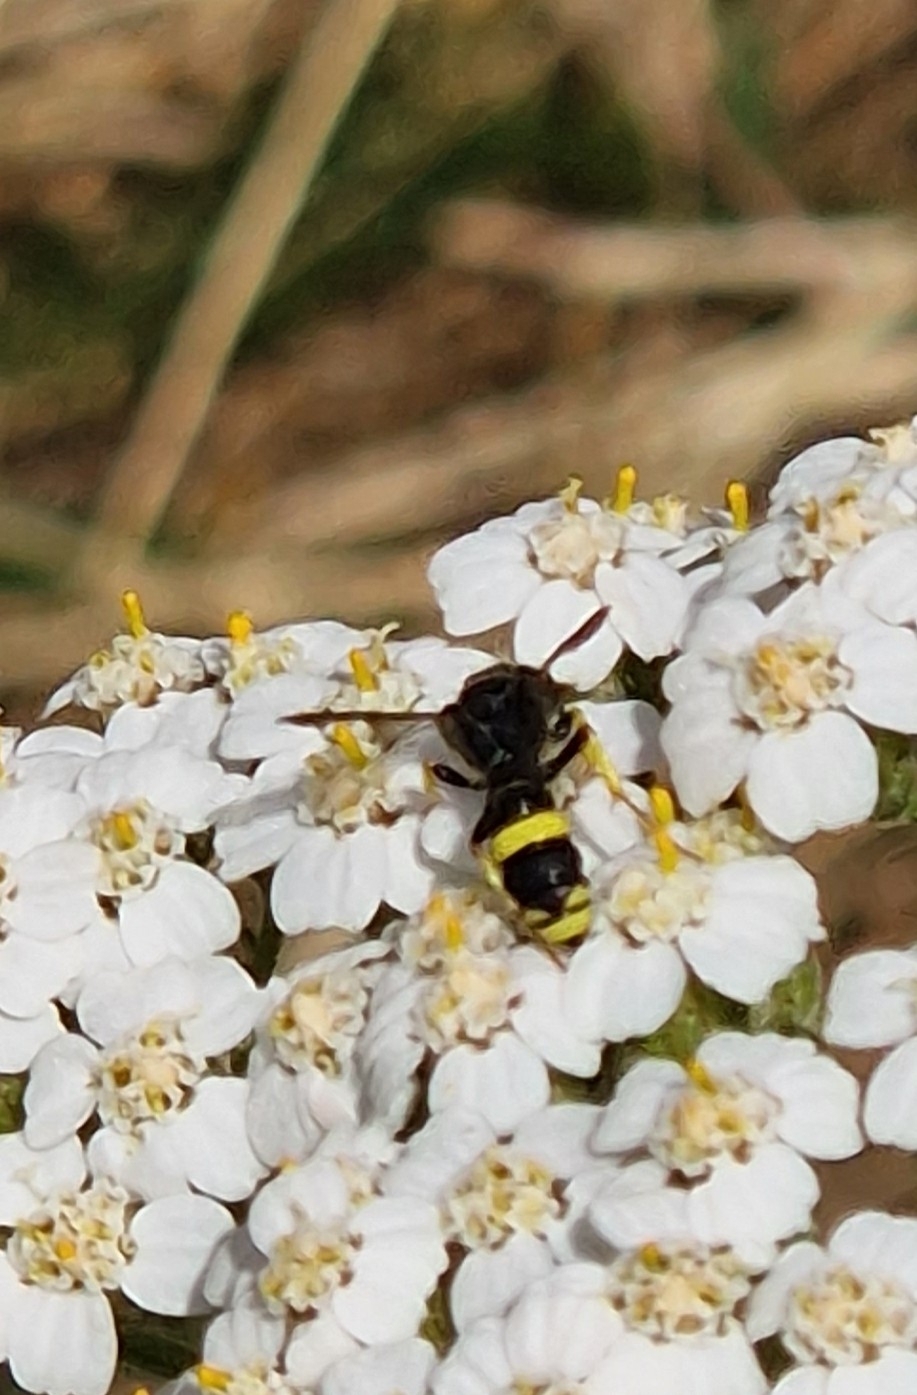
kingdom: Animalia
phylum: Arthropoda
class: Insecta
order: Hymenoptera
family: Crabronidae
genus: Cerceris
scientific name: Cerceris rybyensis
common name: Ornate tailed digger wasp
